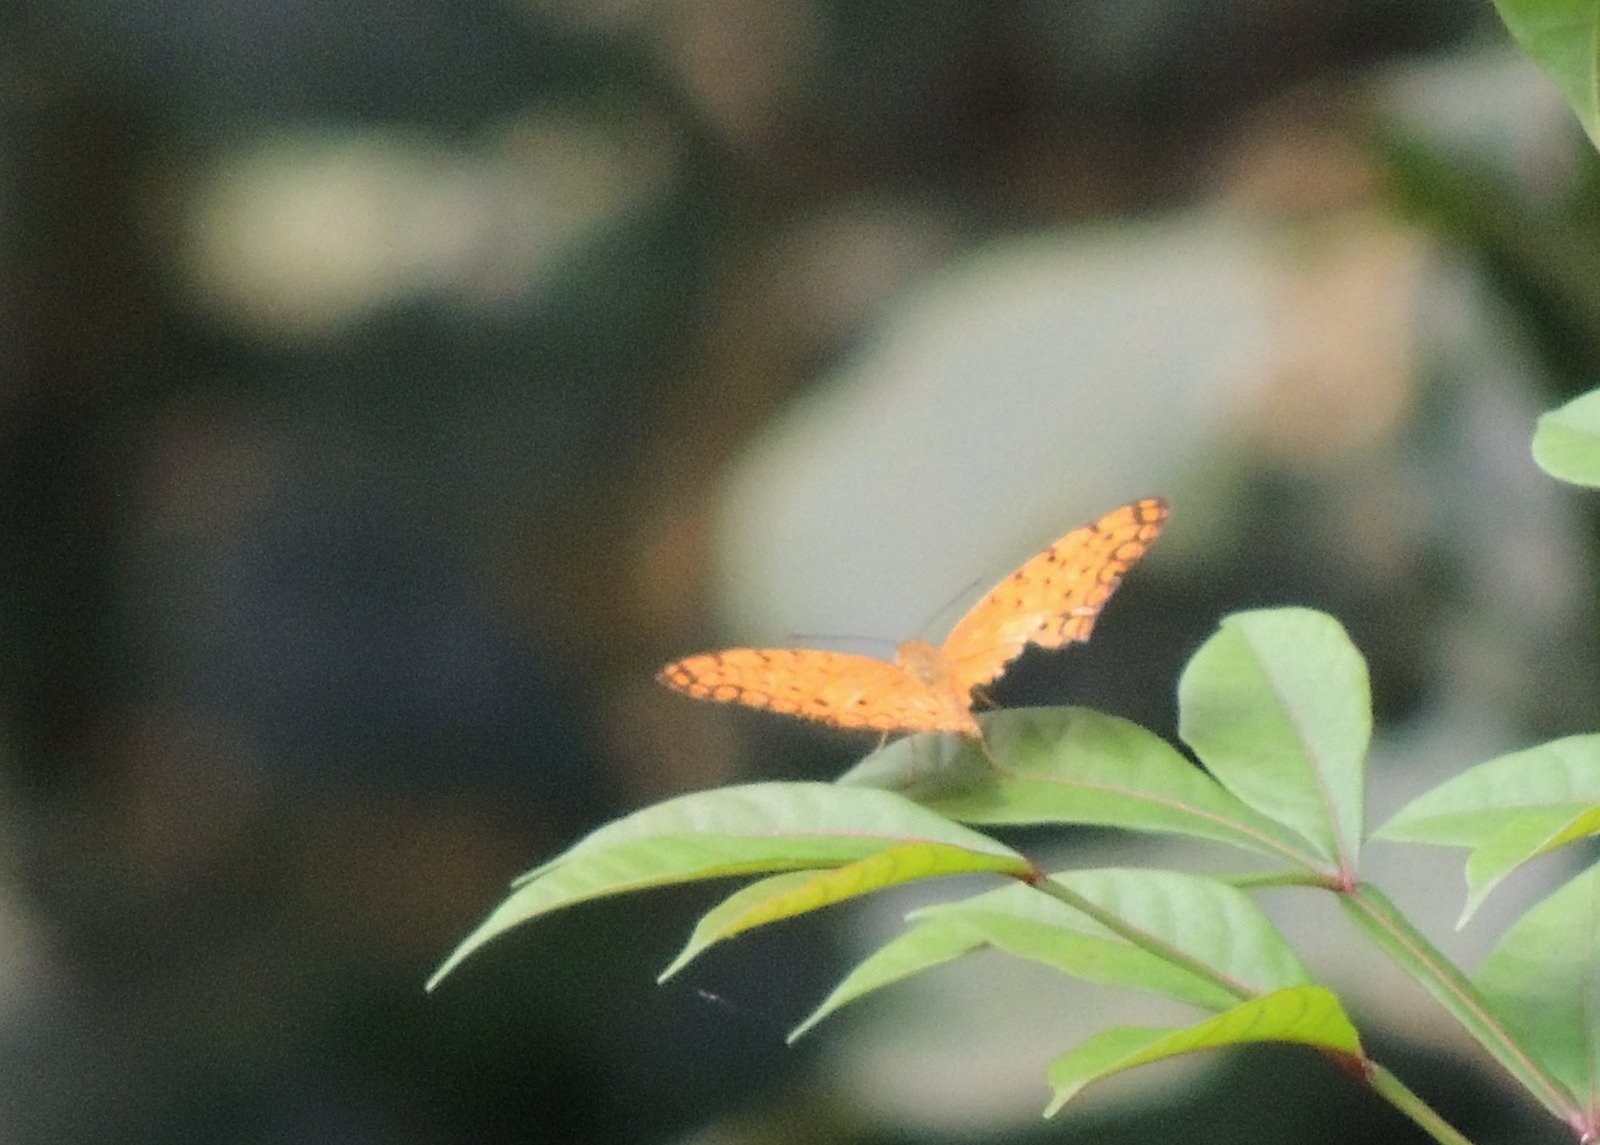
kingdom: Animalia
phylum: Arthropoda
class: Insecta
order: Lepidoptera
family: Nymphalidae
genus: Phalanta
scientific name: Phalanta phalantha
